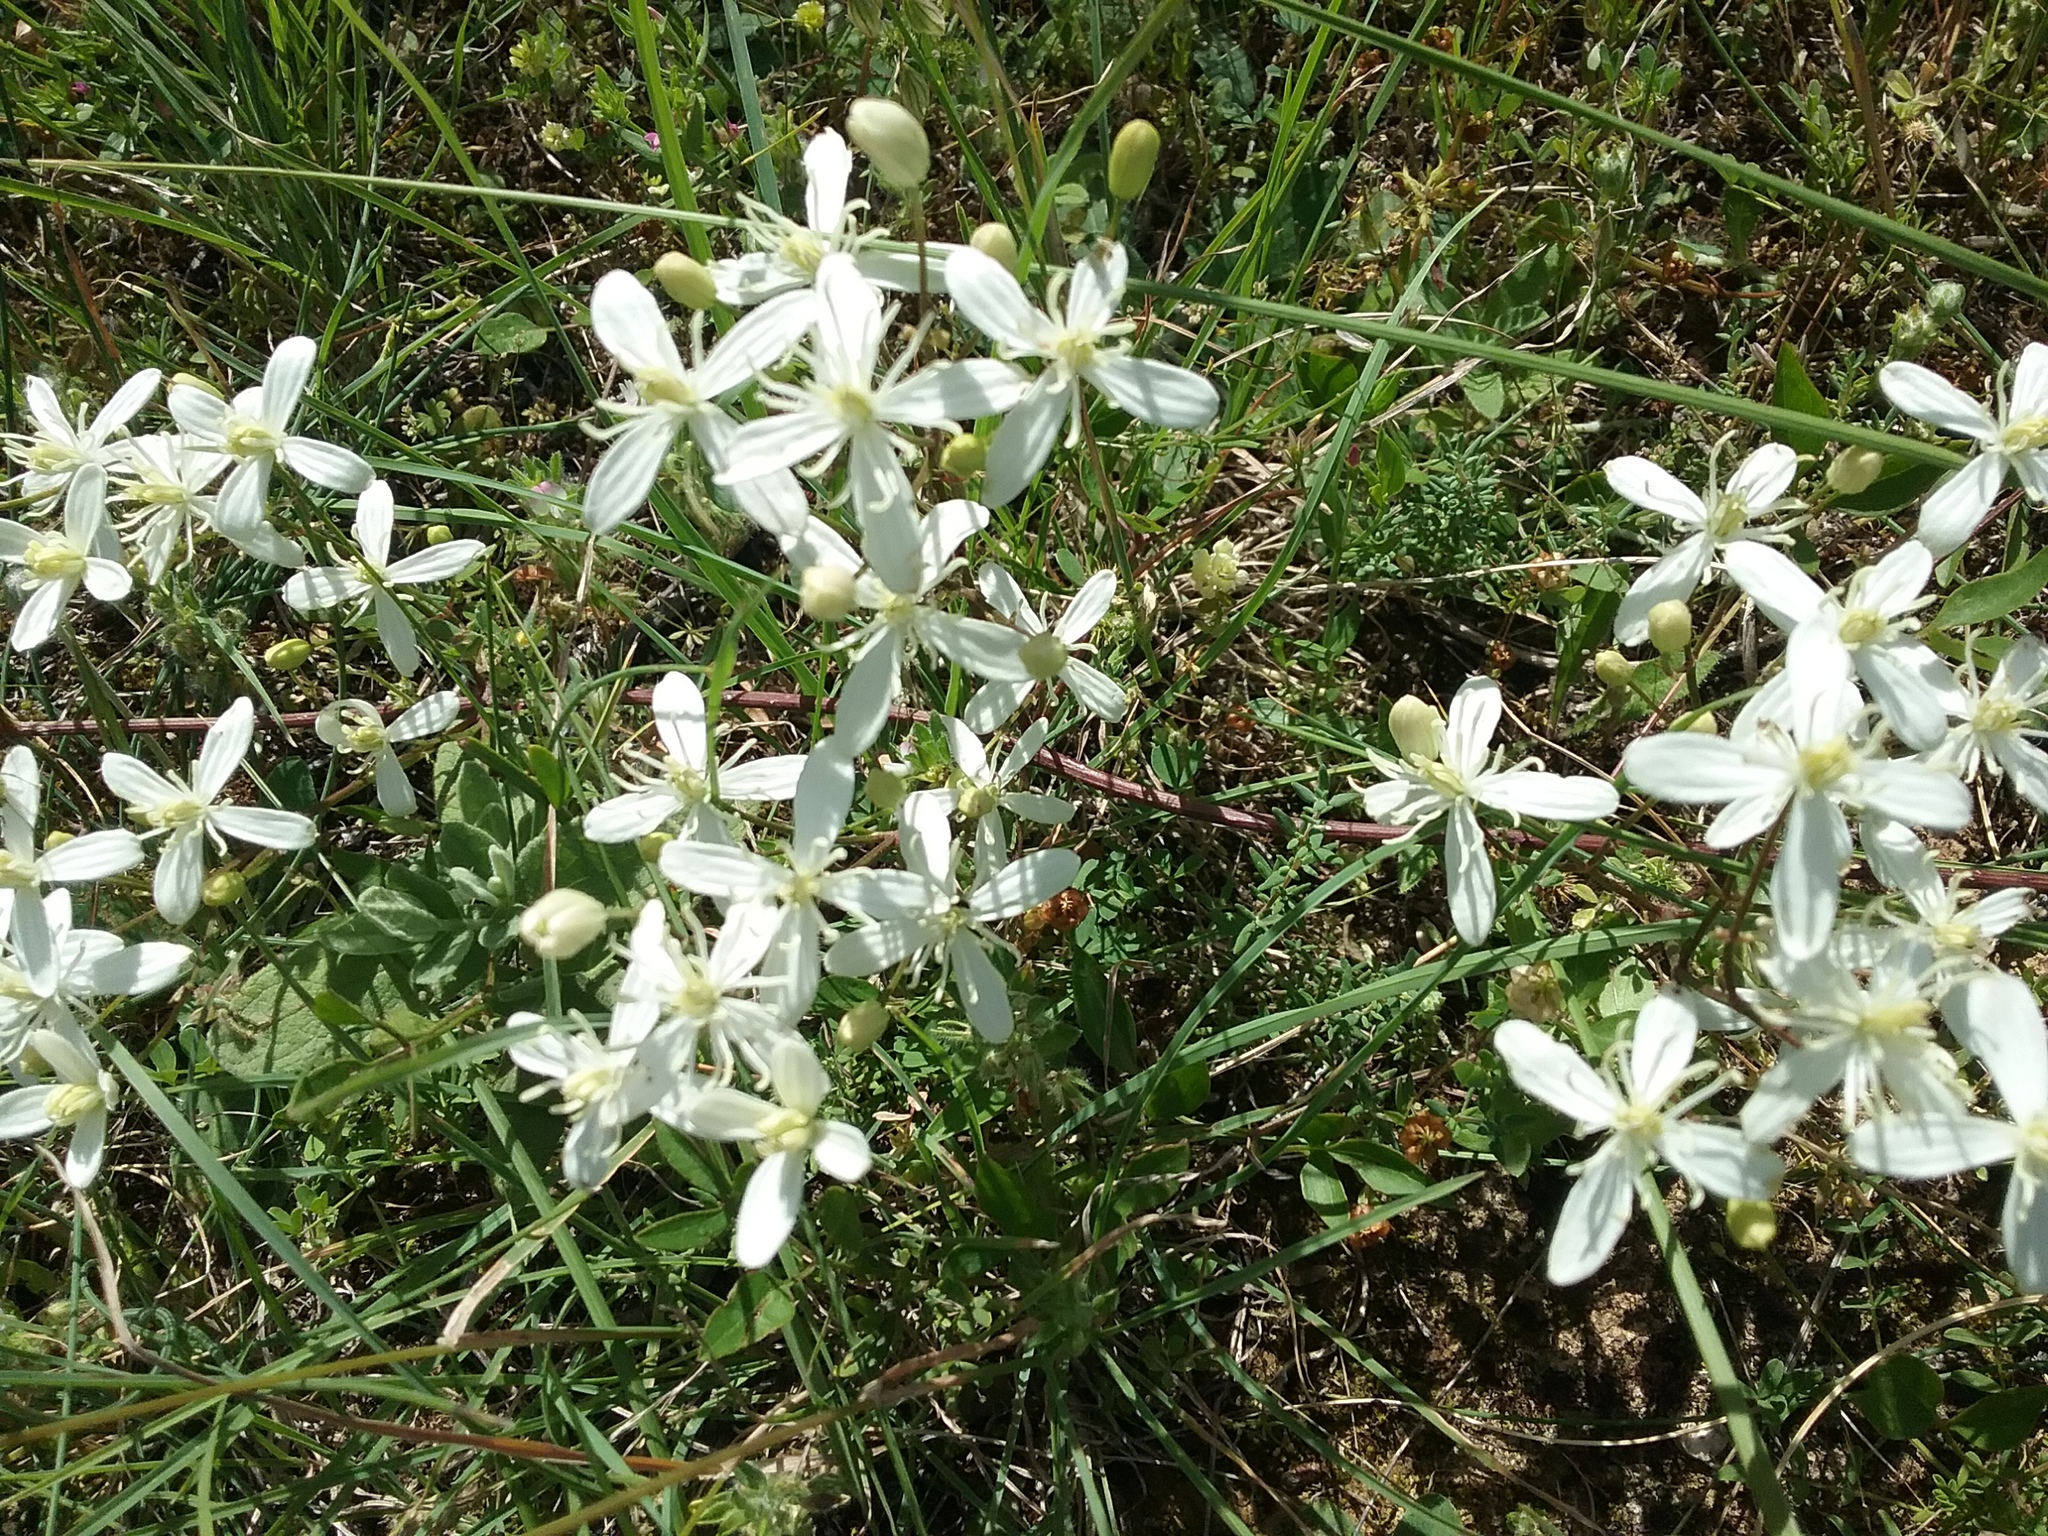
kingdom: Plantae
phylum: Tracheophyta
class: Magnoliopsida
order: Ranunculales
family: Ranunculaceae
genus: Clematis
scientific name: Clematis flammula
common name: Virgin's-bower
